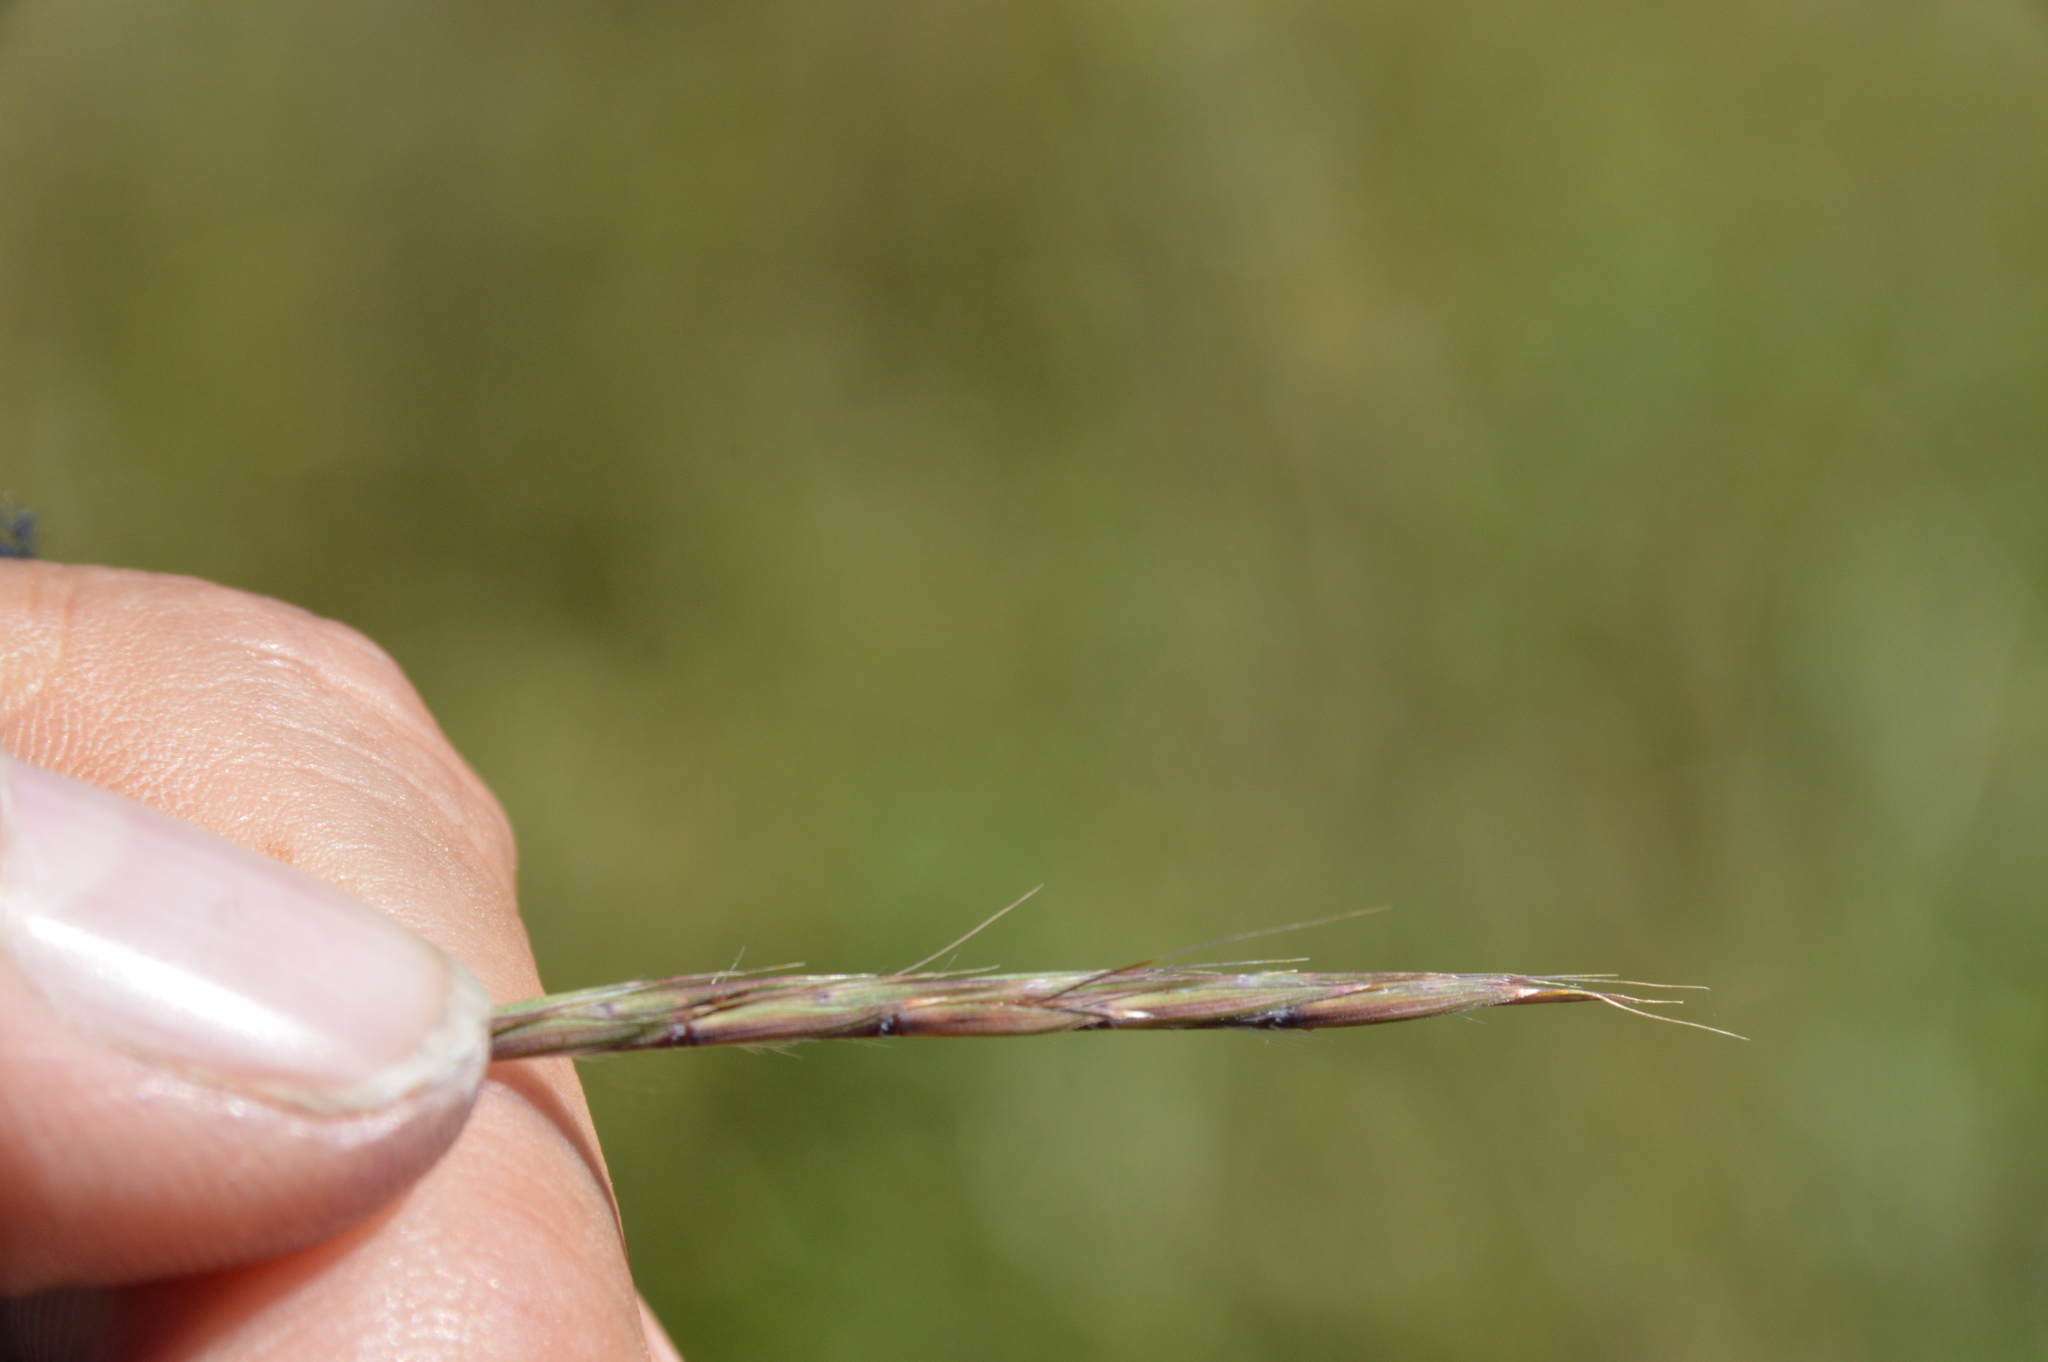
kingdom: Plantae
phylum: Tracheophyta
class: Liliopsida
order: Poales
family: Poaceae
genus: Schizachyrium
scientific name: Schizachyrium scoparium
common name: Little bluestem
